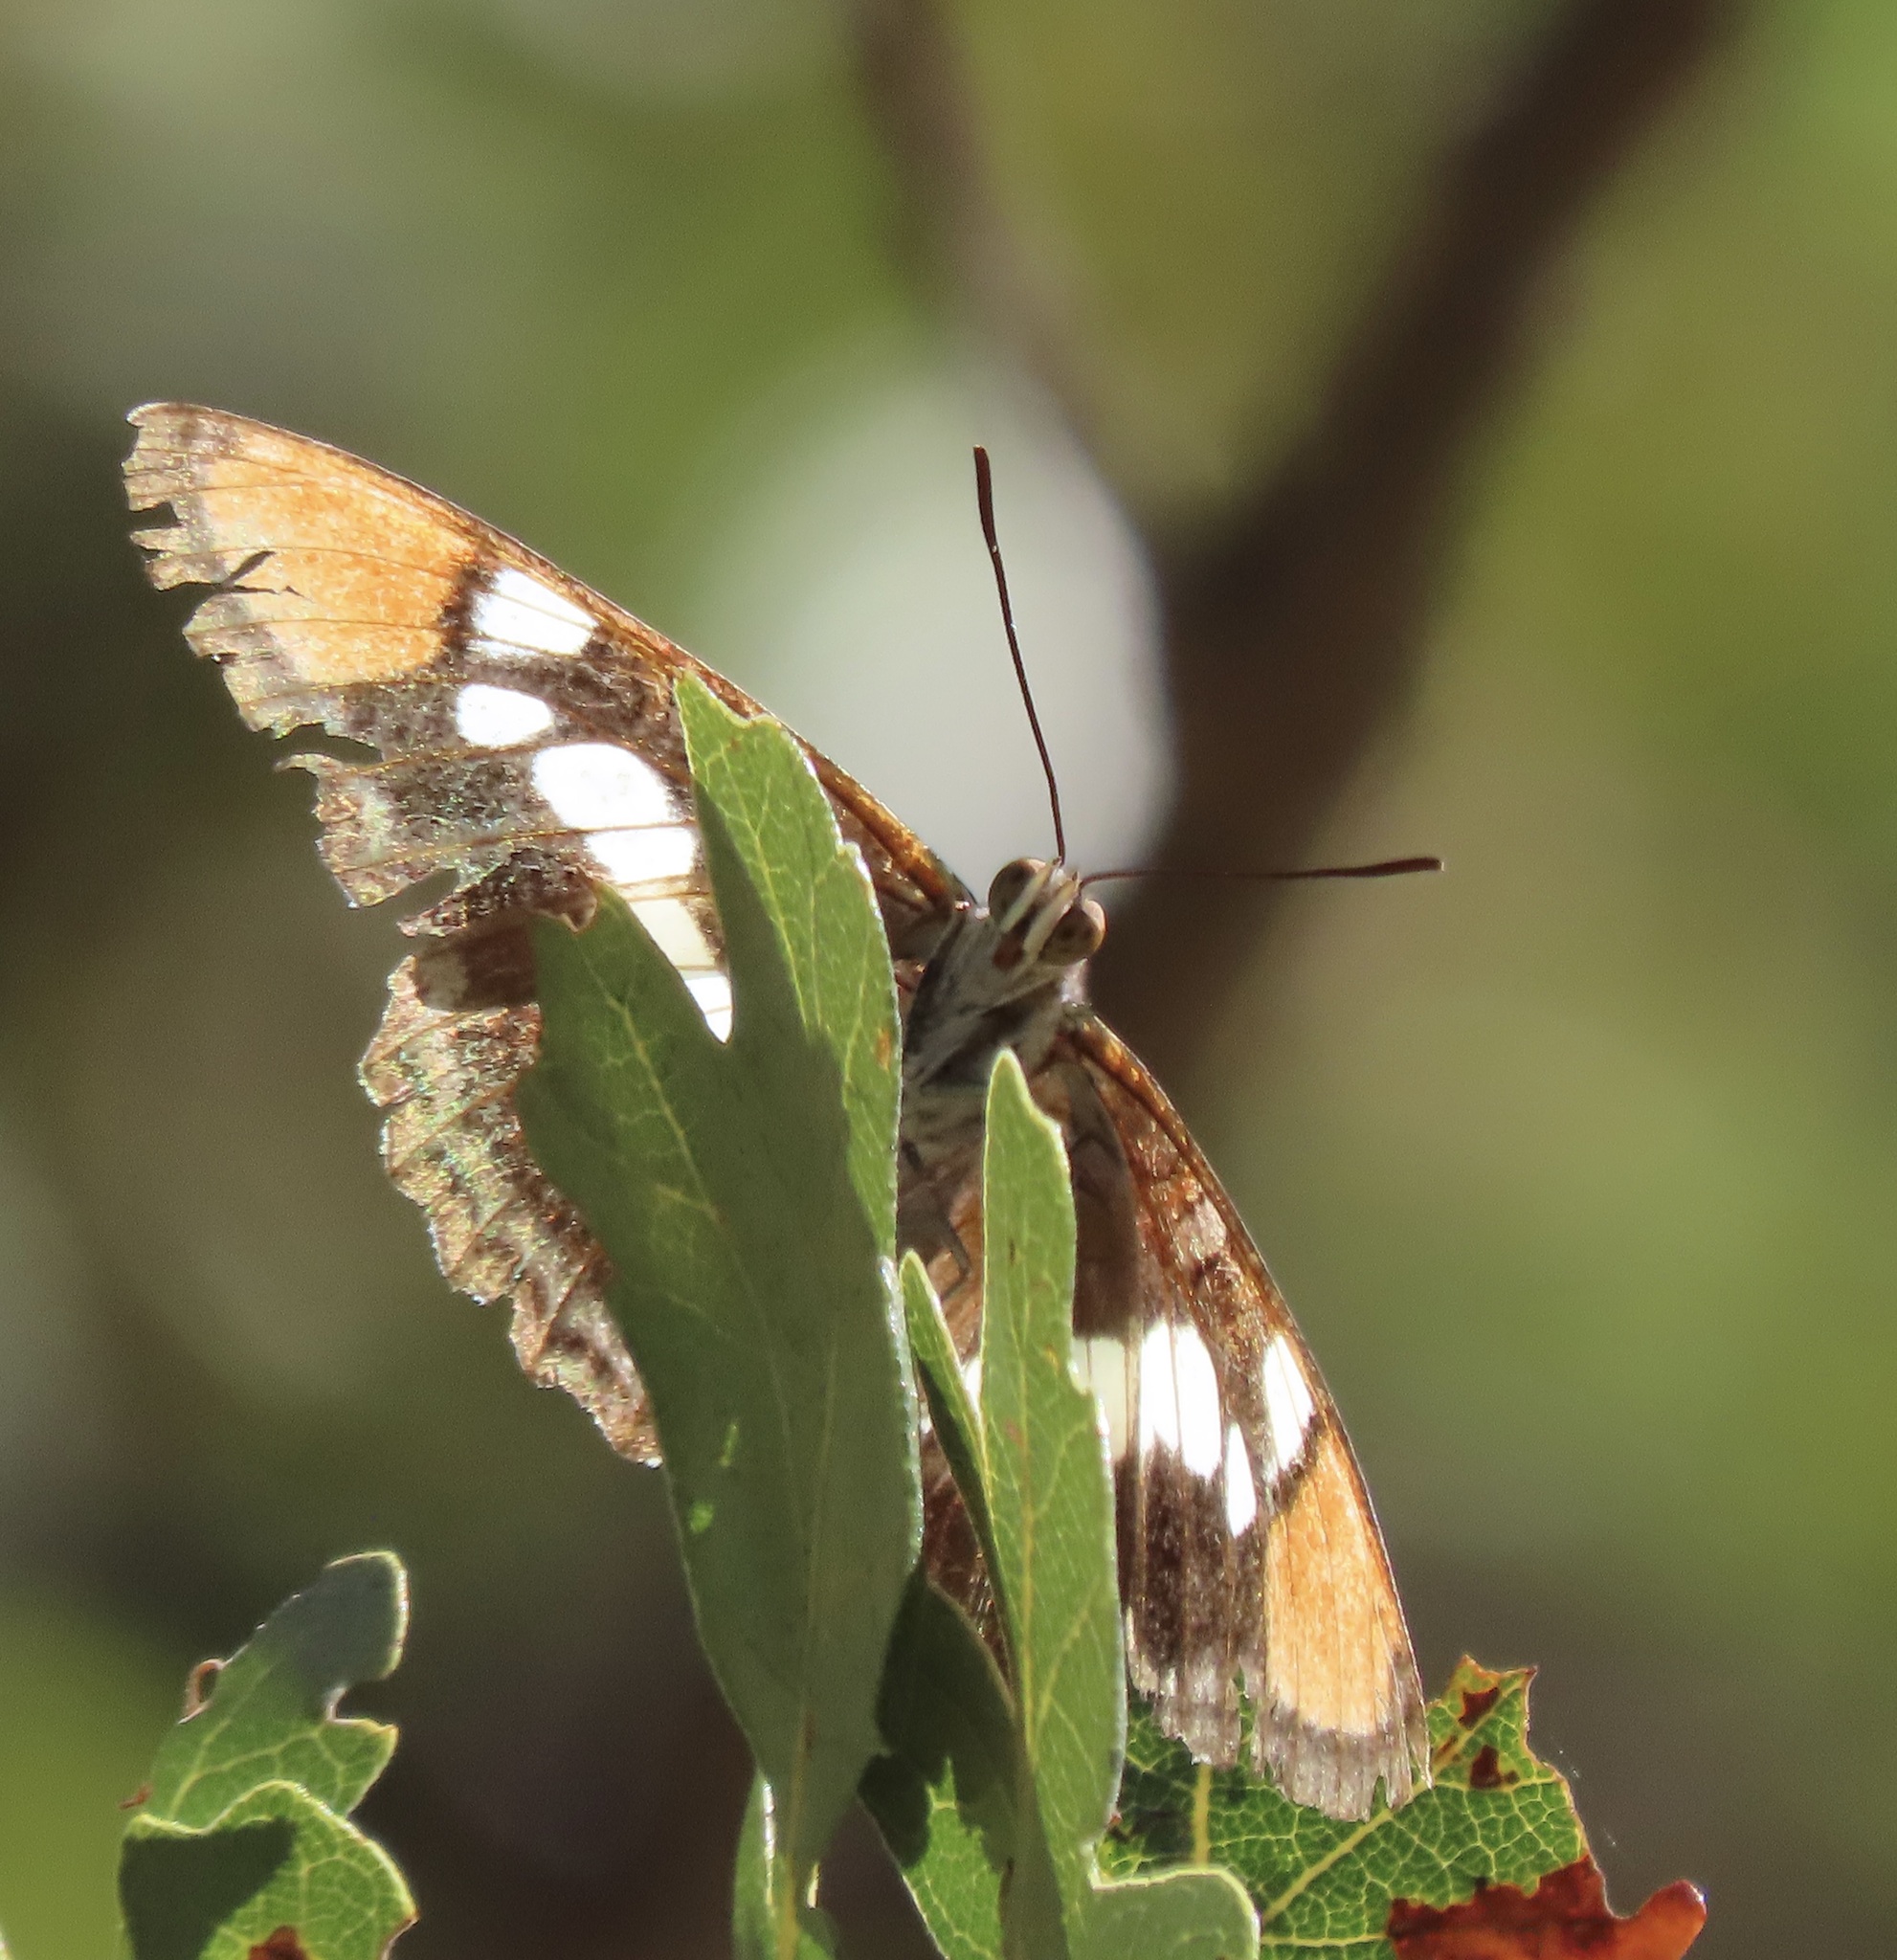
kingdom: Animalia
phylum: Arthropoda
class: Insecta
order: Lepidoptera
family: Nymphalidae
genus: Limenitis
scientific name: Limenitis bredowii
